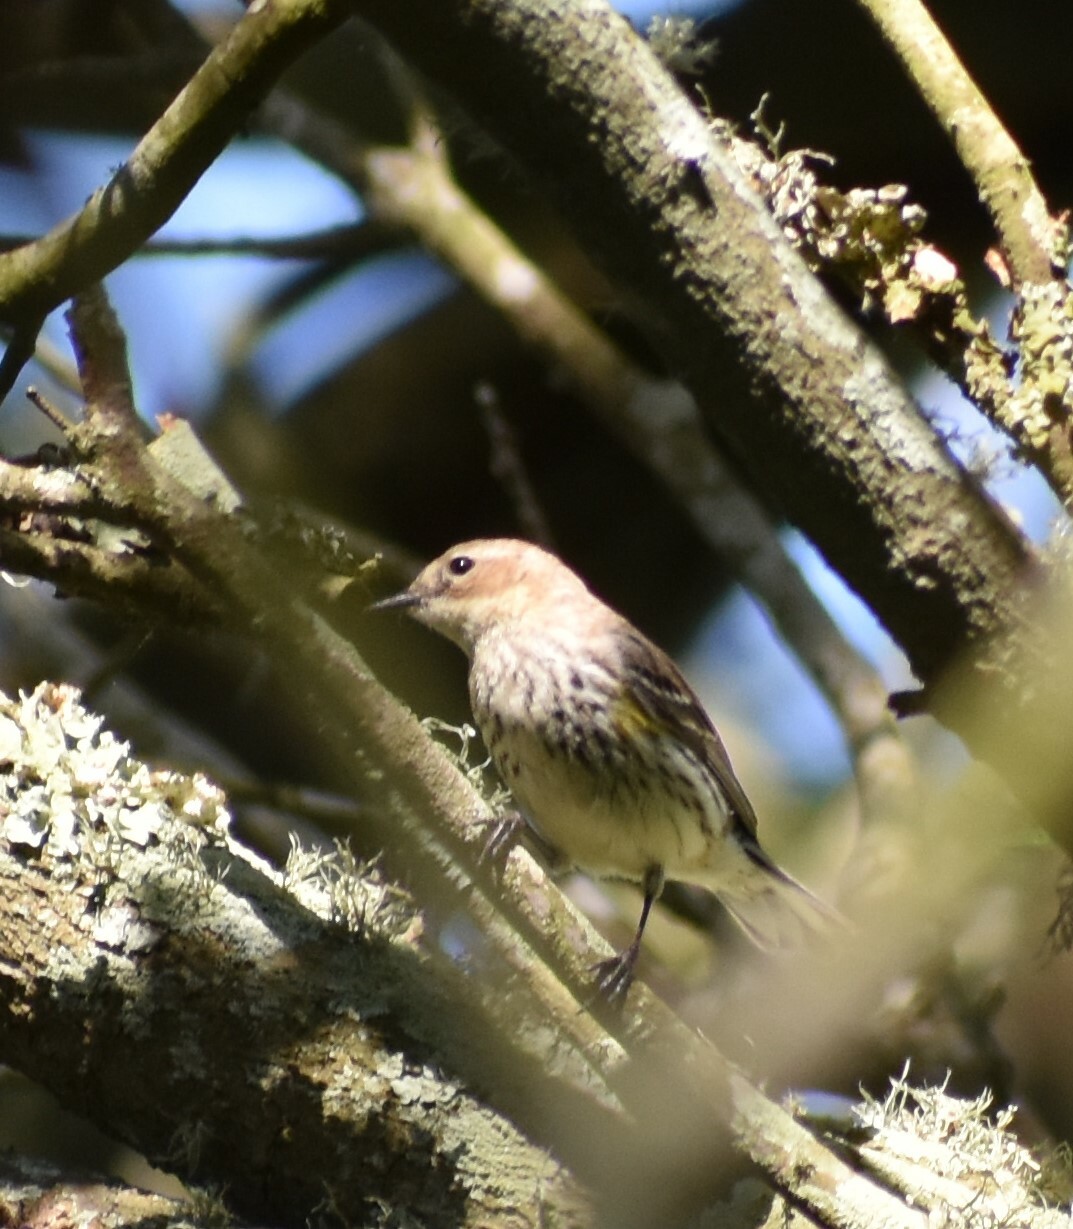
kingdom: Animalia
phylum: Chordata
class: Aves
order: Passeriformes
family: Parulidae
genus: Setophaga
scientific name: Setophaga coronata
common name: Myrtle warbler
